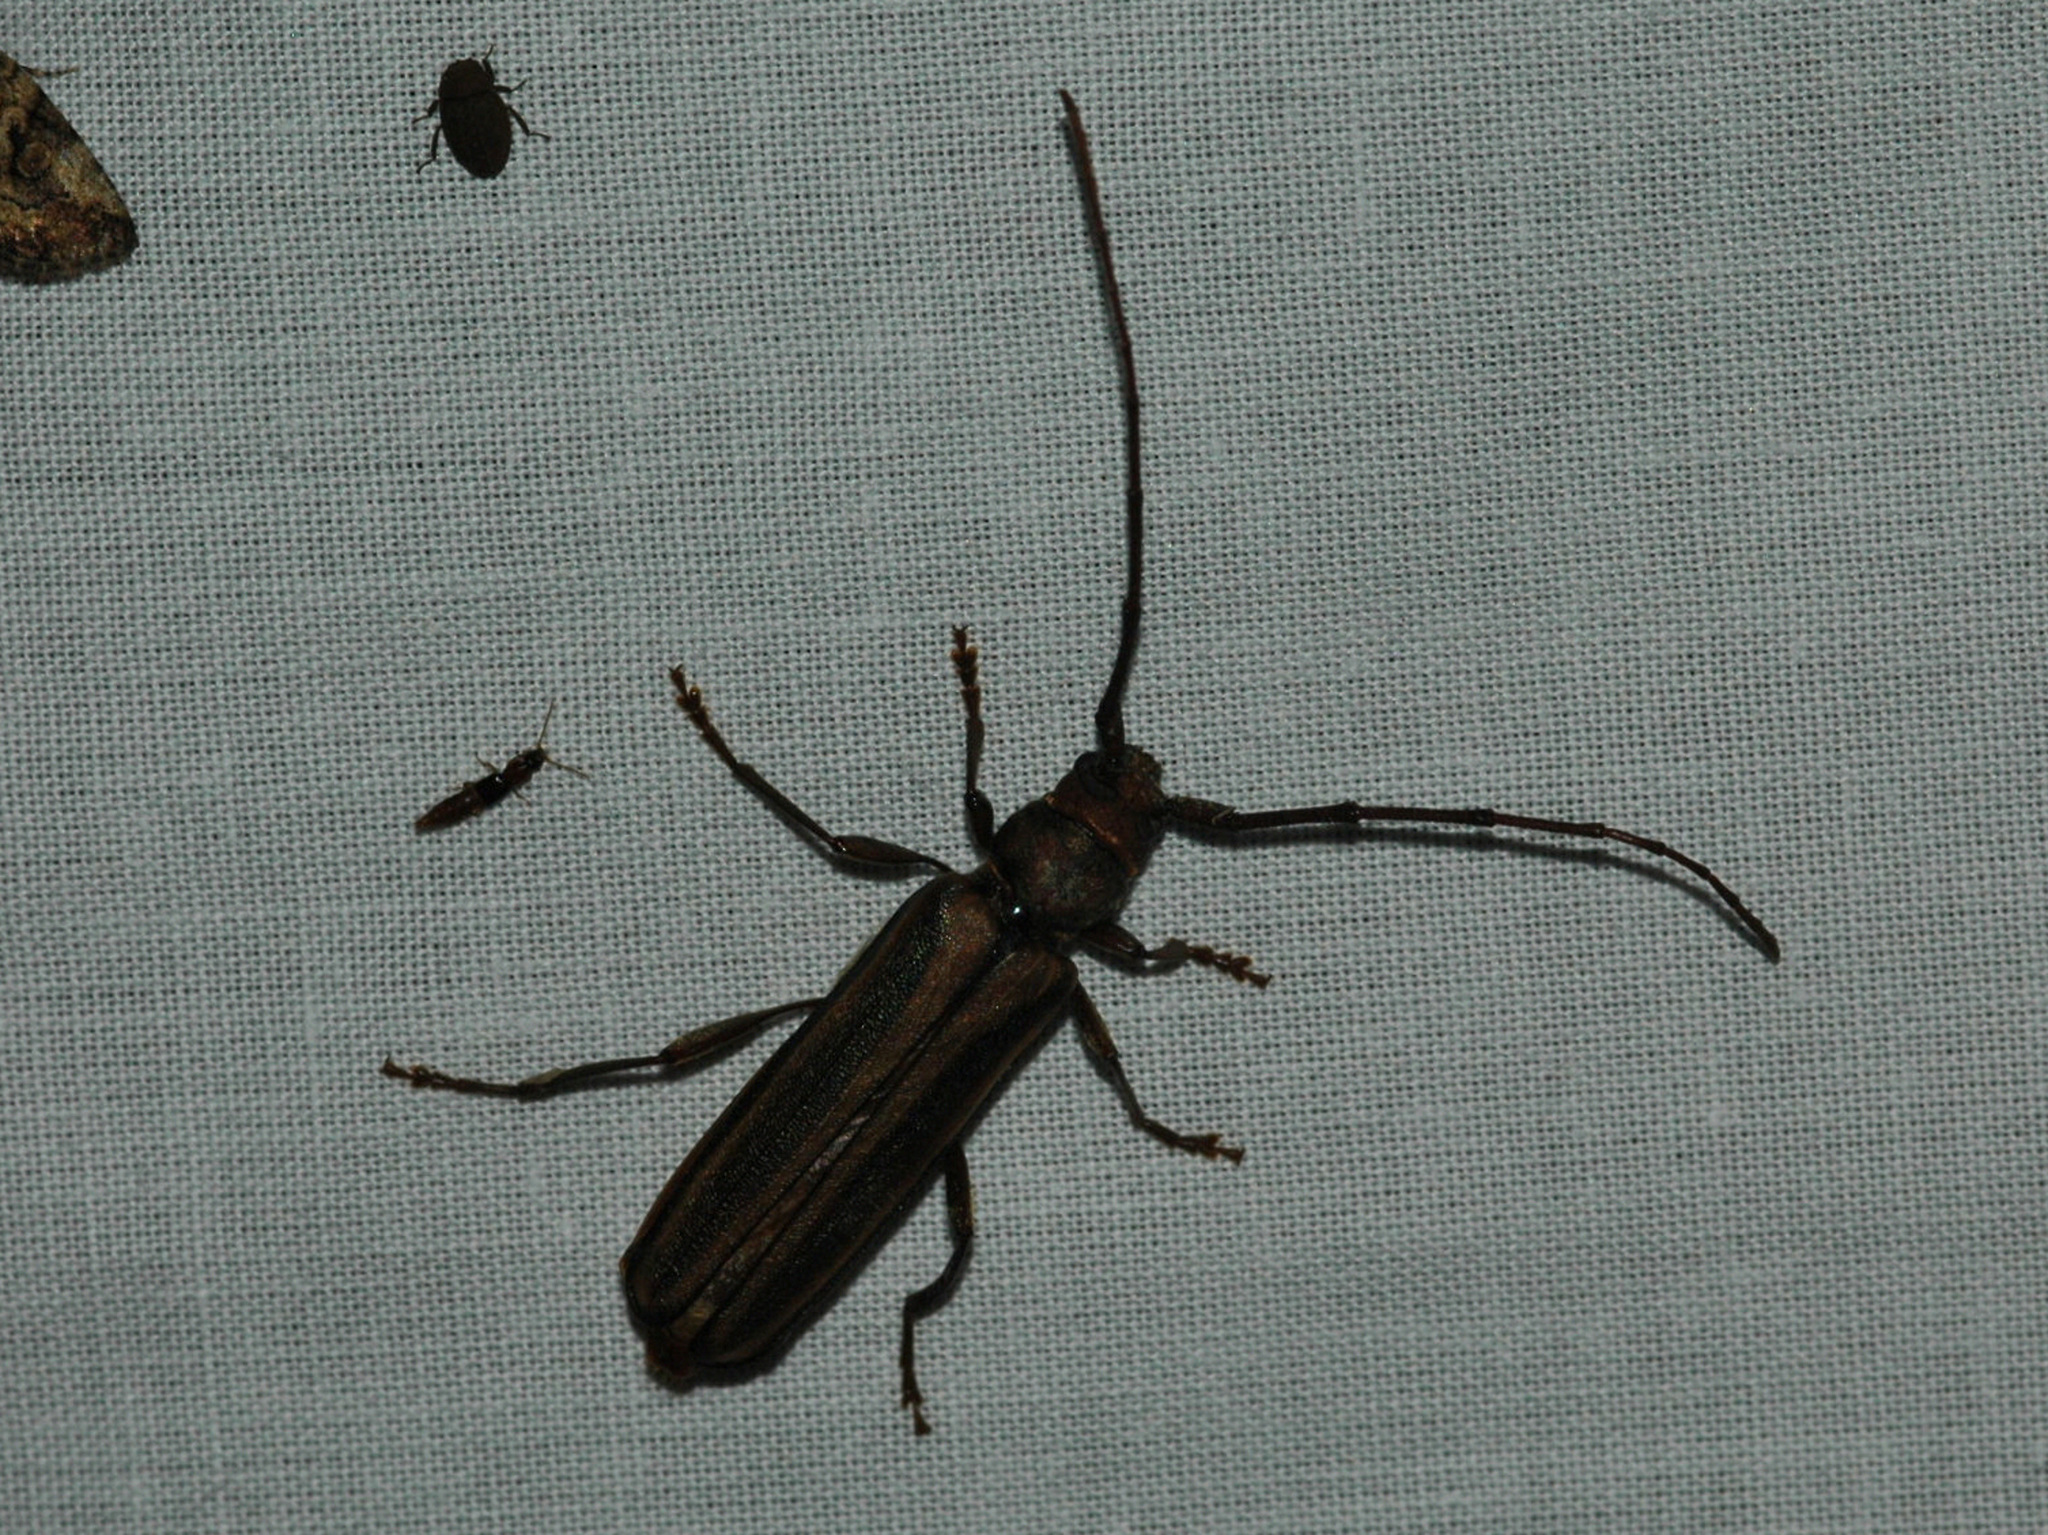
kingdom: Animalia
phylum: Arthropoda
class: Insecta
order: Coleoptera
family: Cerambycidae
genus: Xystrocera
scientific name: Xystrocera dispar
